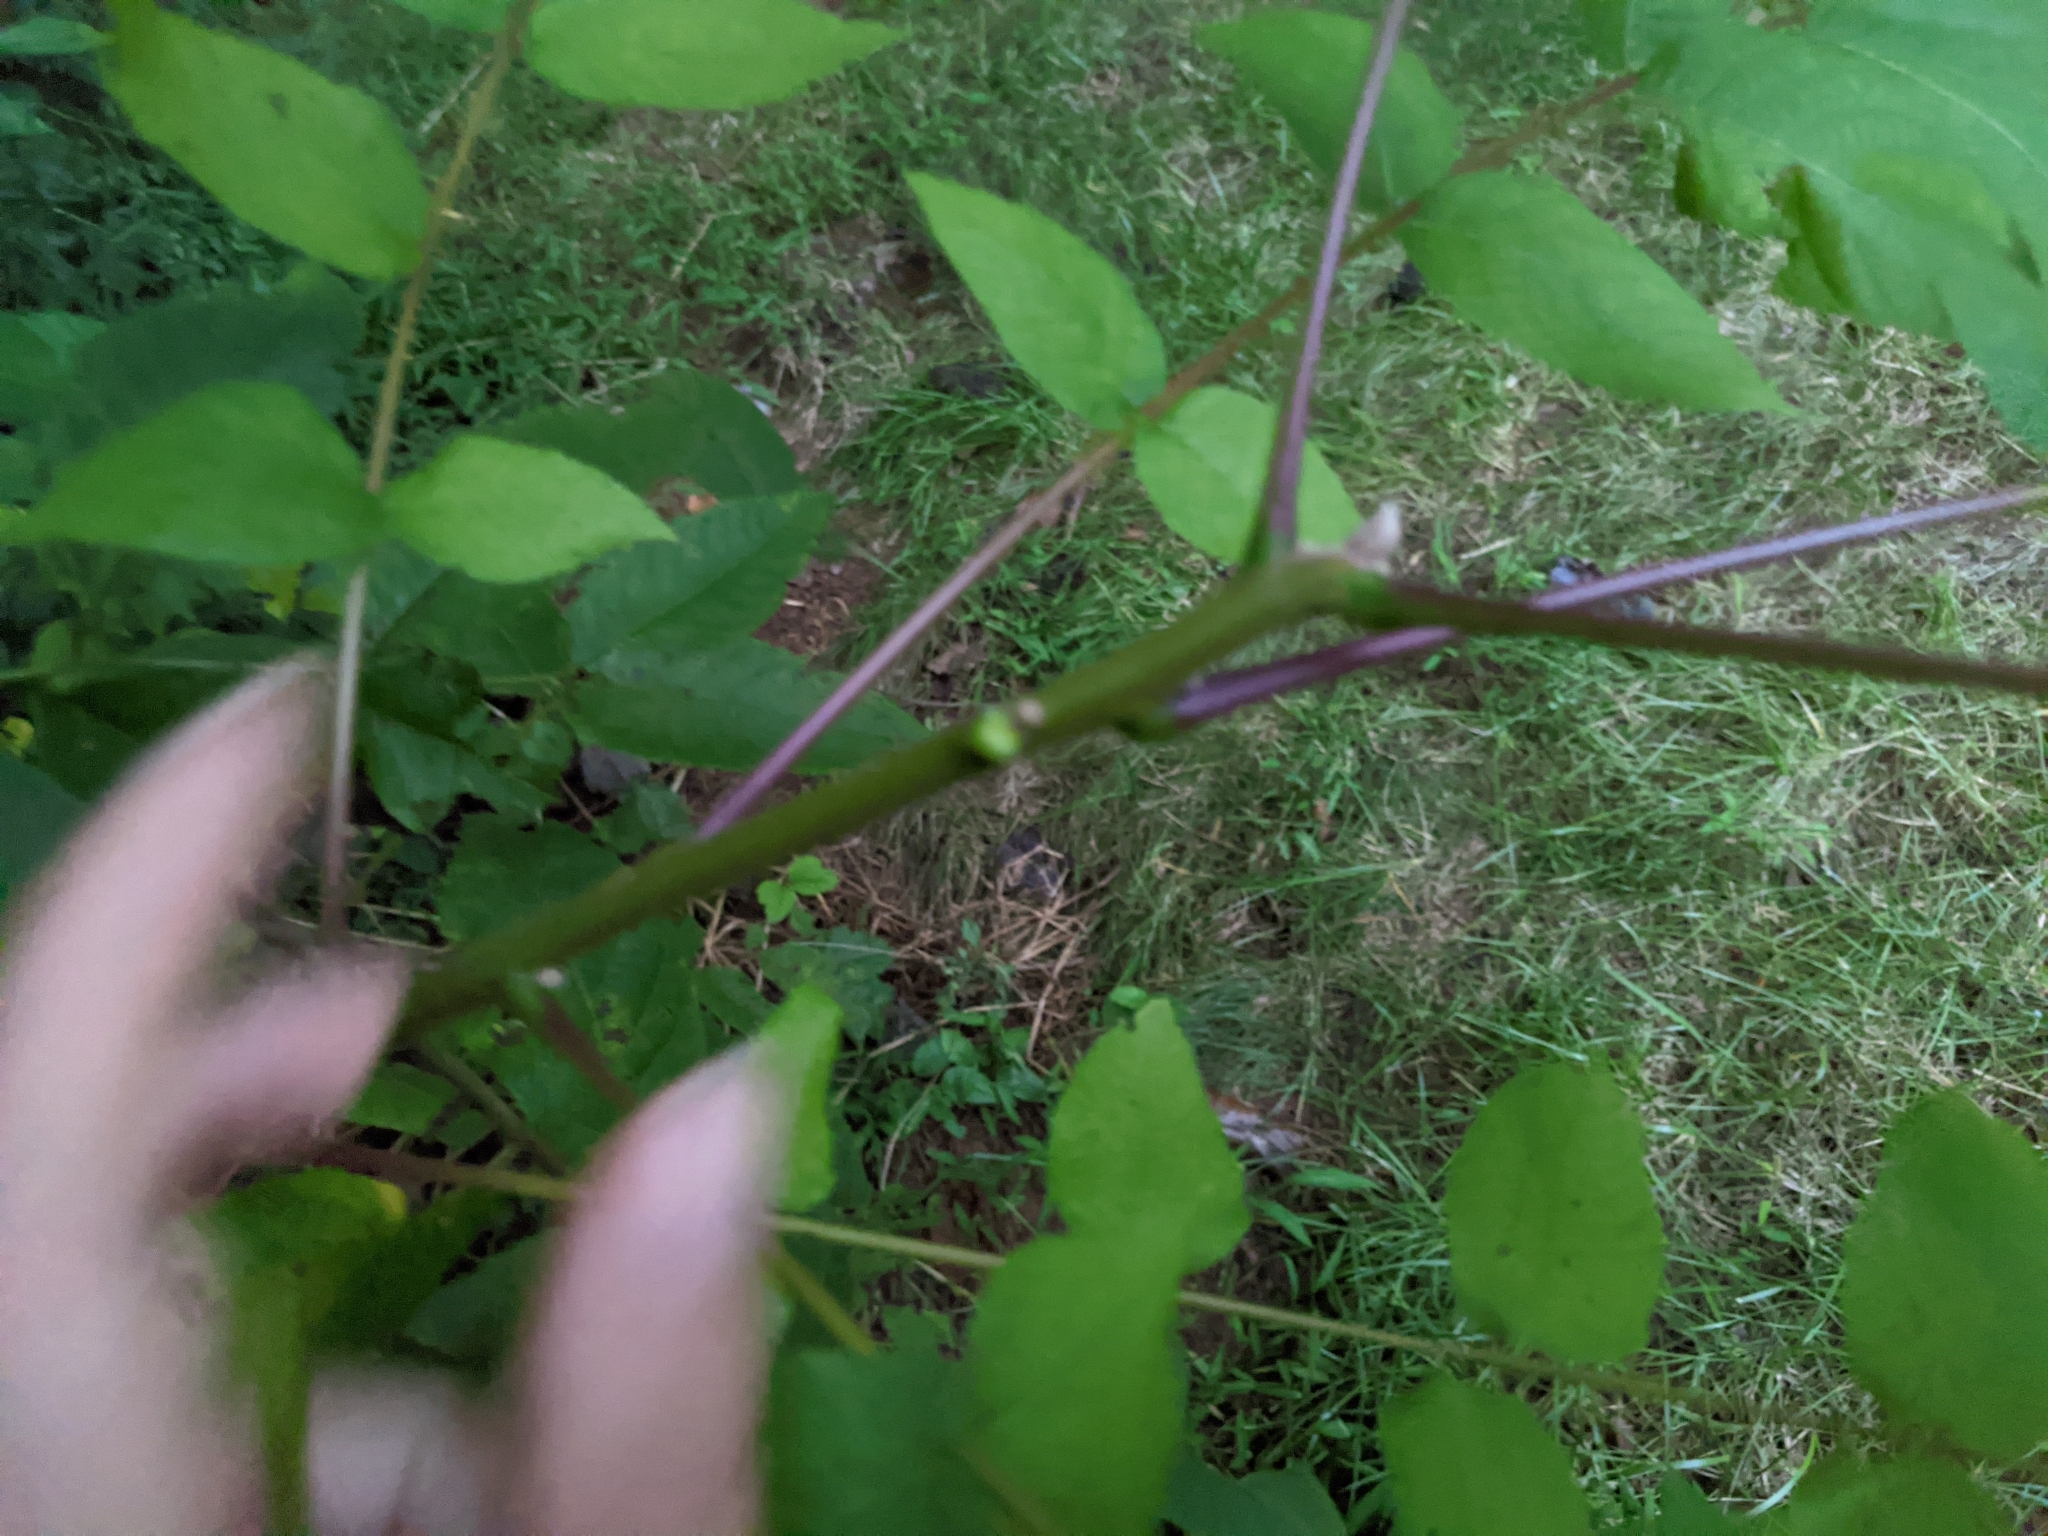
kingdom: Plantae
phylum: Tracheophyta
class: Magnoliopsida
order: Fagales
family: Juglandaceae
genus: Juglans
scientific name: Juglans nigra
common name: Black walnut
